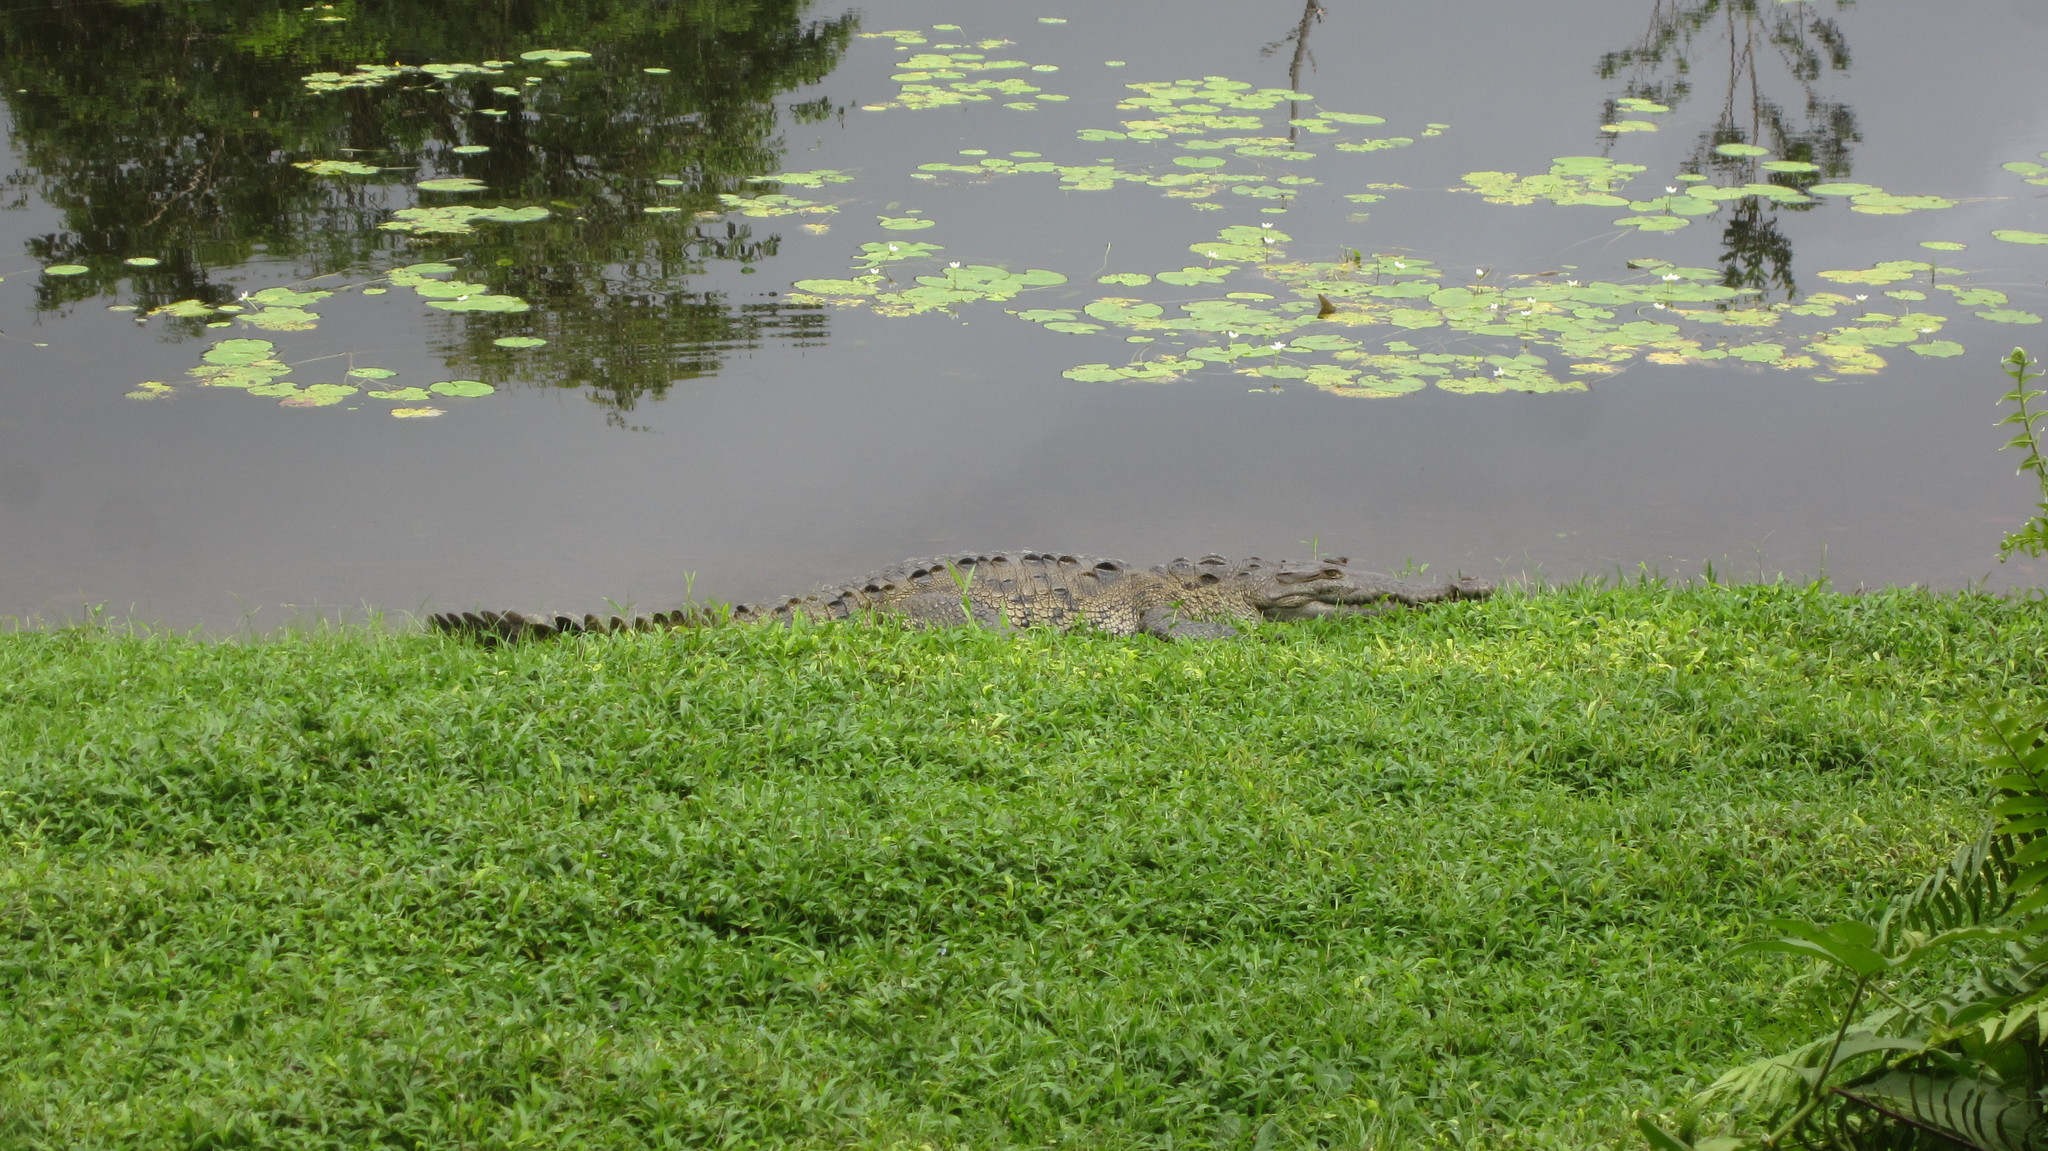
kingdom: Animalia
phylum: Chordata
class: Crocodylia
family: Crocodylidae
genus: Crocodylus
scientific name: Crocodylus acutus
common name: American crocodile
